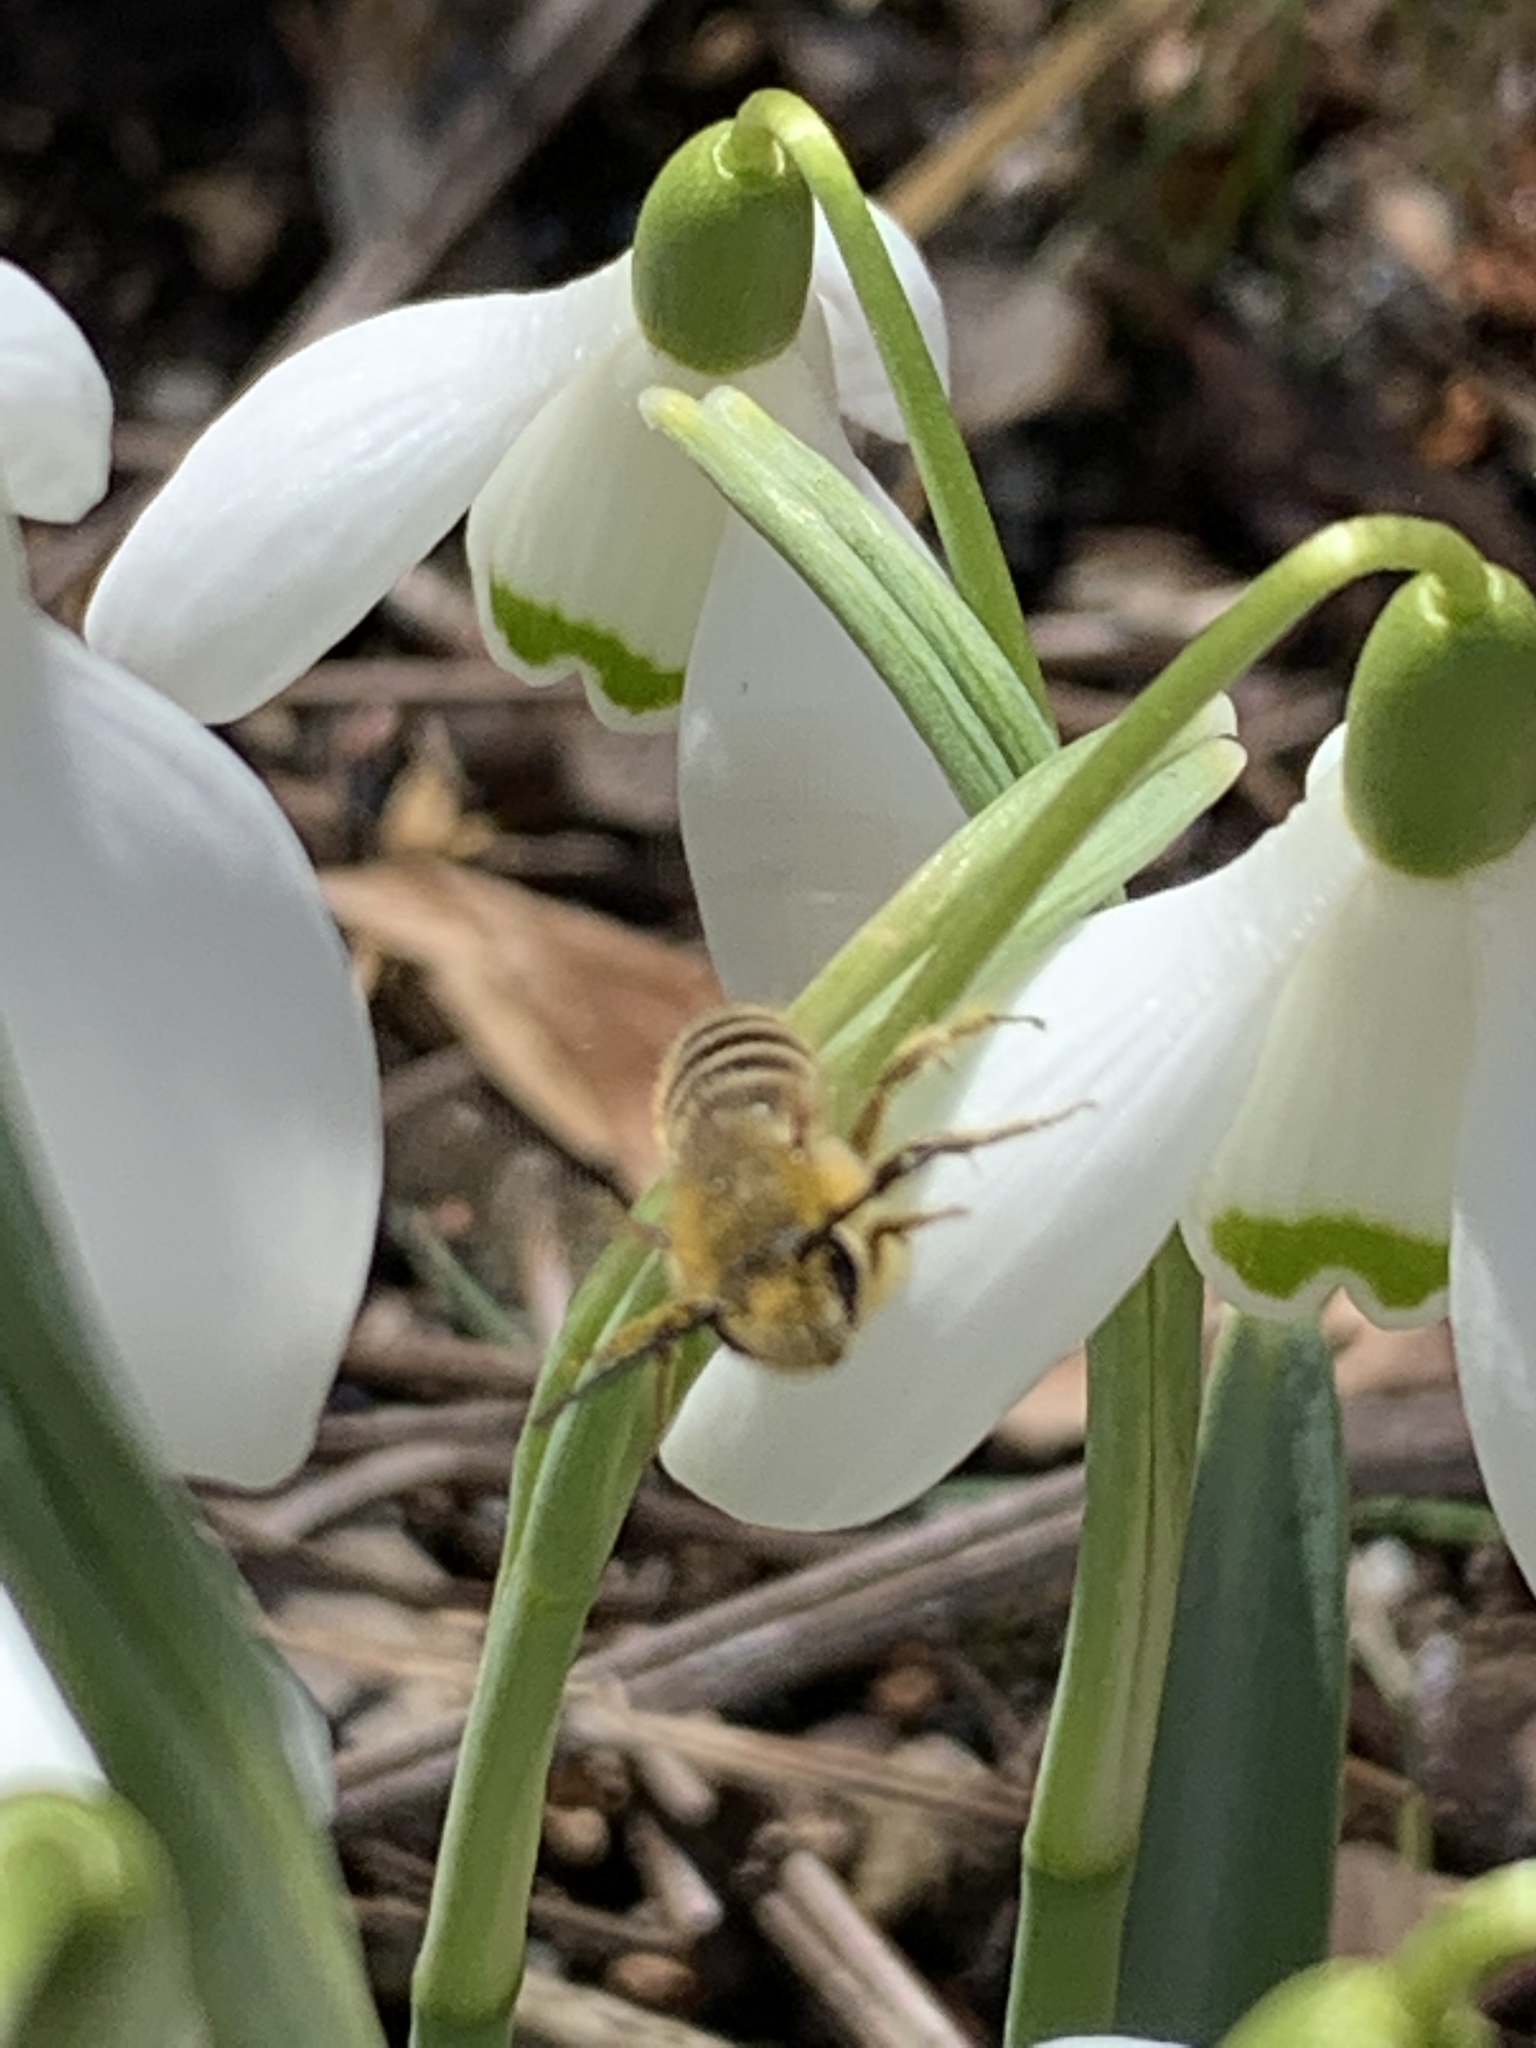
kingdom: Animalia
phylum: Arthropoda
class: Insecta
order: Hymenoptera
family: Colletidae
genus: Colletes
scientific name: Colletes inaequalis
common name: Unequal cellophane bee
